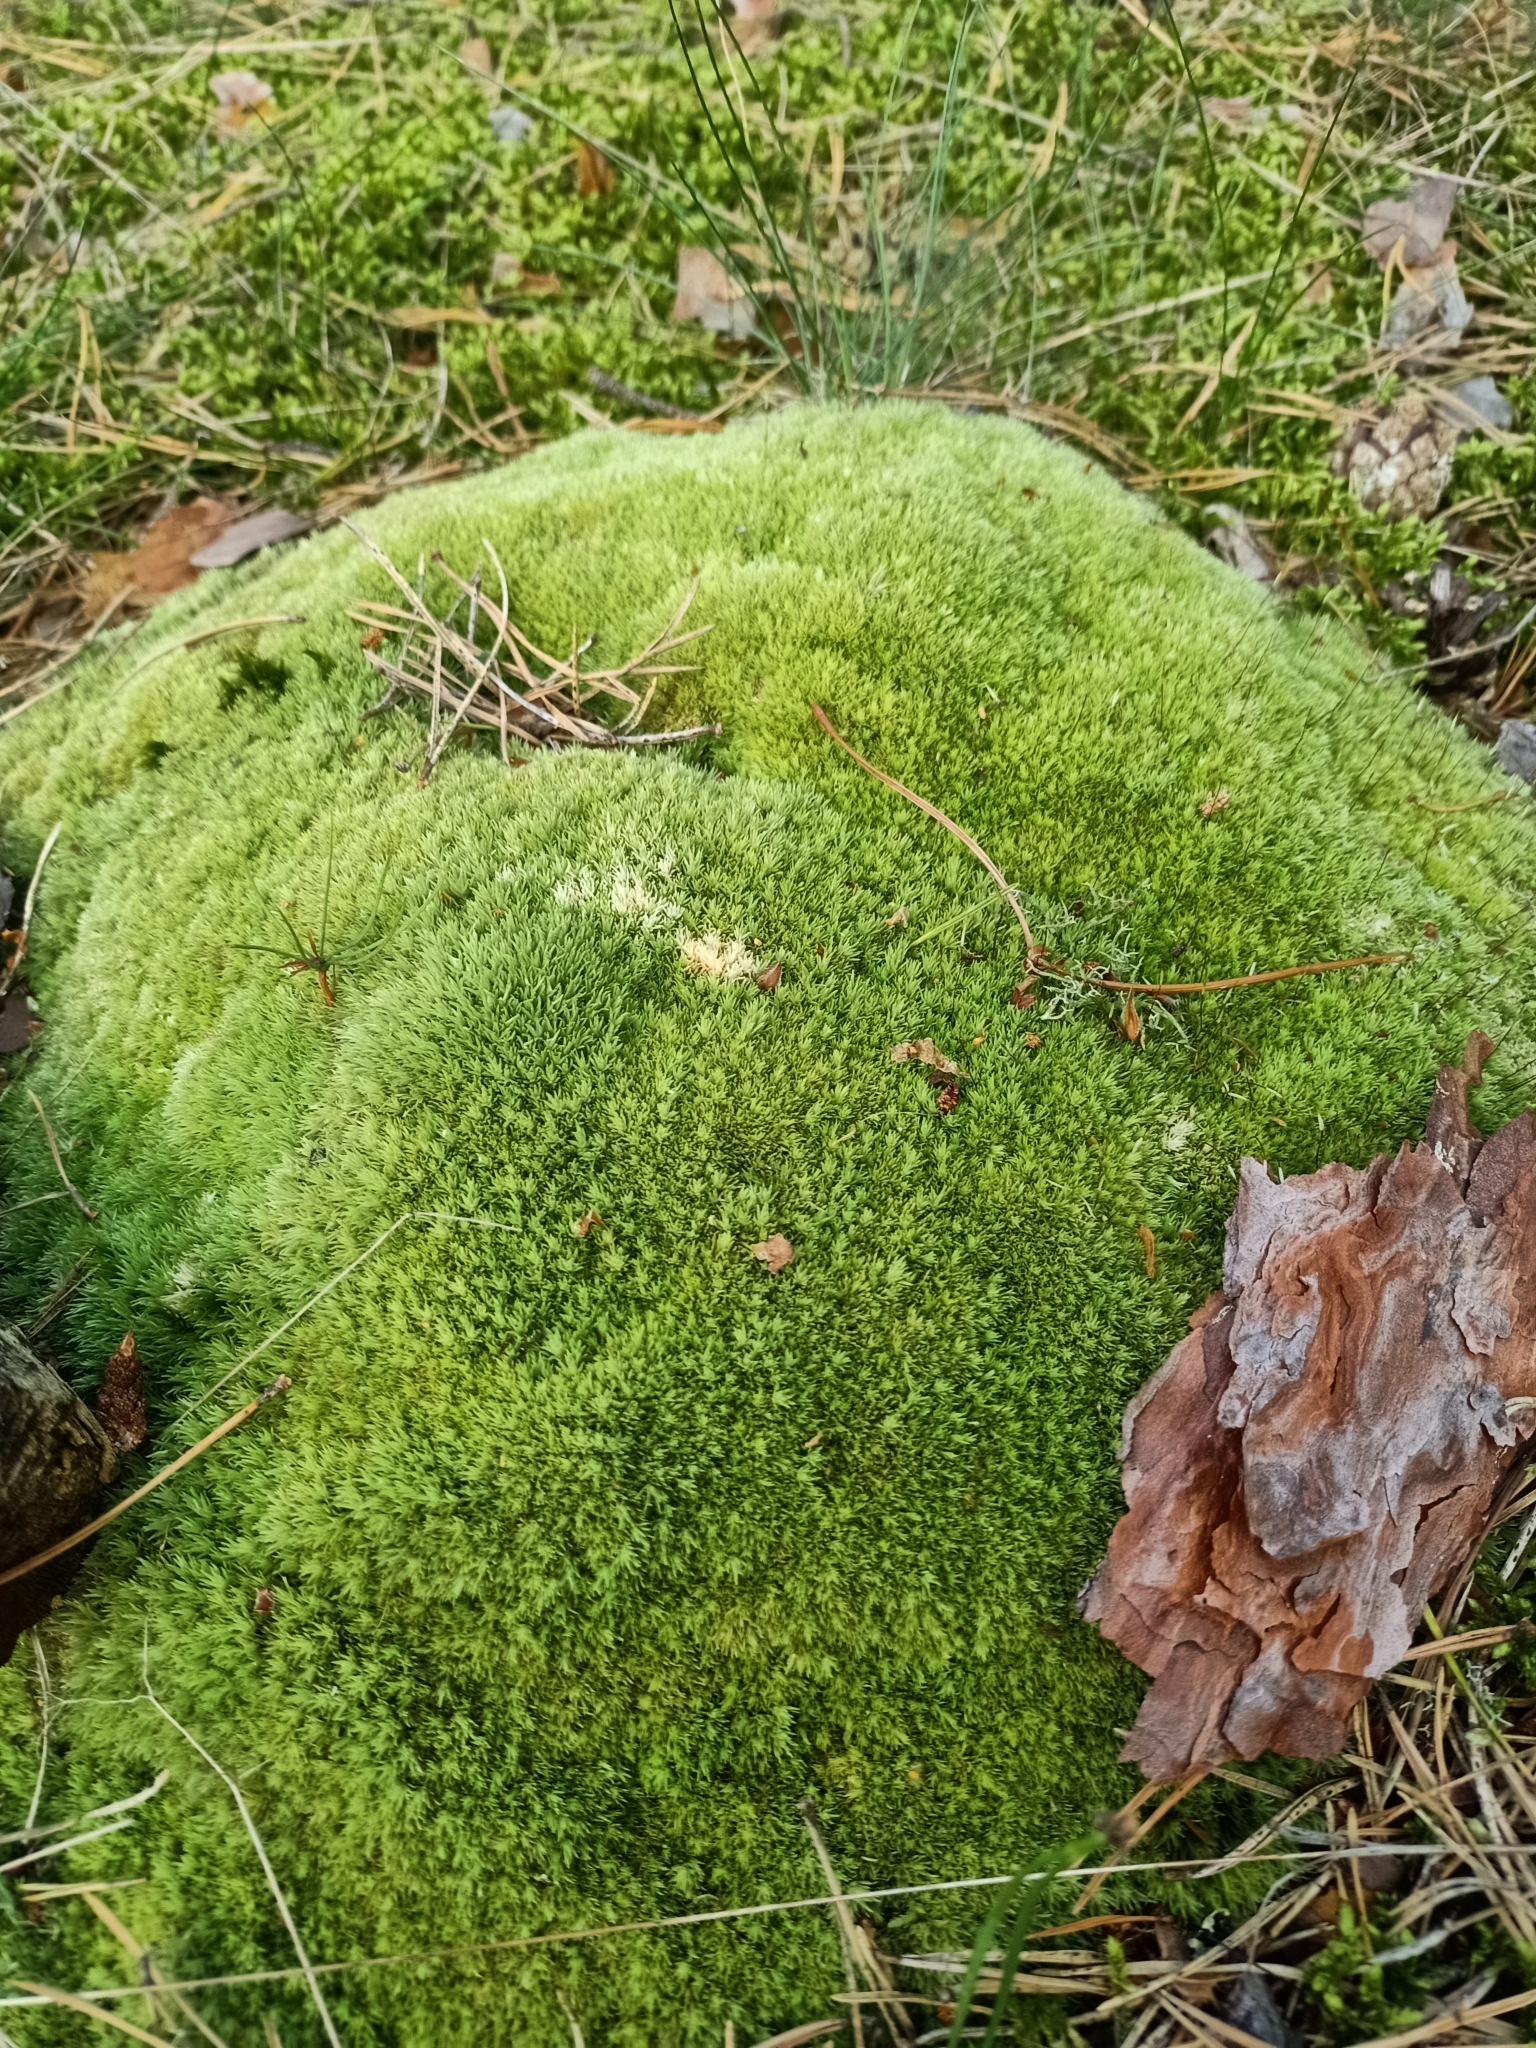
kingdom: Plantae
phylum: Bryophyta
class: Bryopsida
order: Dicranales
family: Leucobryaceae
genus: Leucobryum
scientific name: Leucobryum glaucum
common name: Large white-moss
